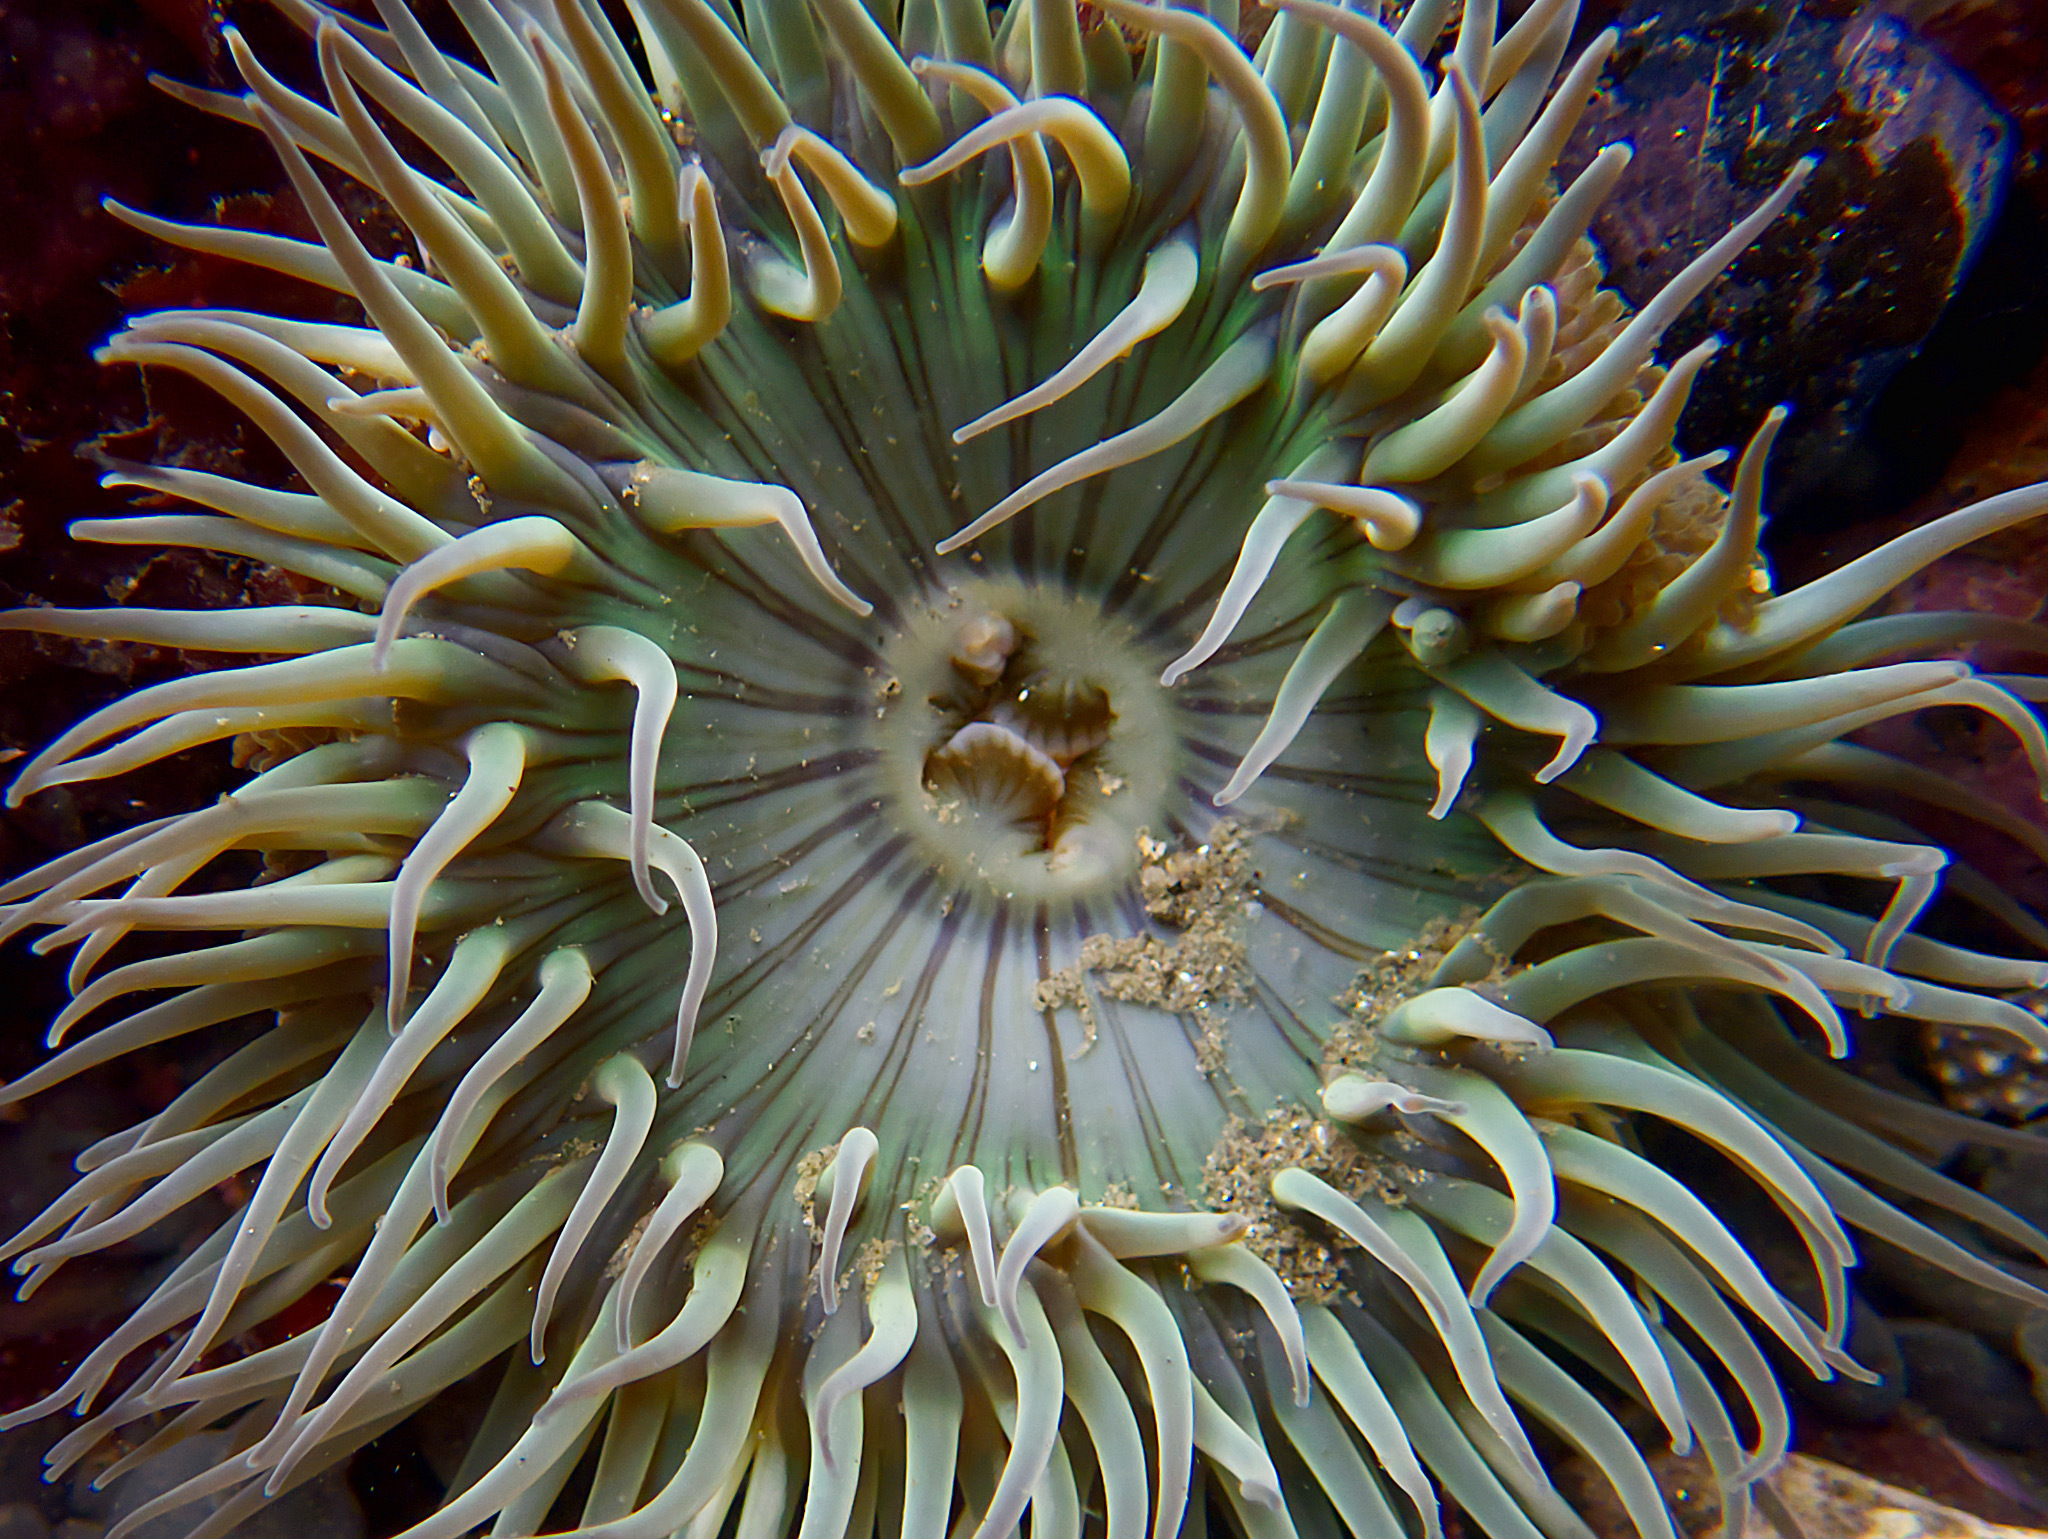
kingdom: Animalia
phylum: Cnidaria
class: Anthozoa
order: Actiniaria
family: Actiniidae
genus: Anthopleura
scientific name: Anthopleura sola
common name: Sun anemone
